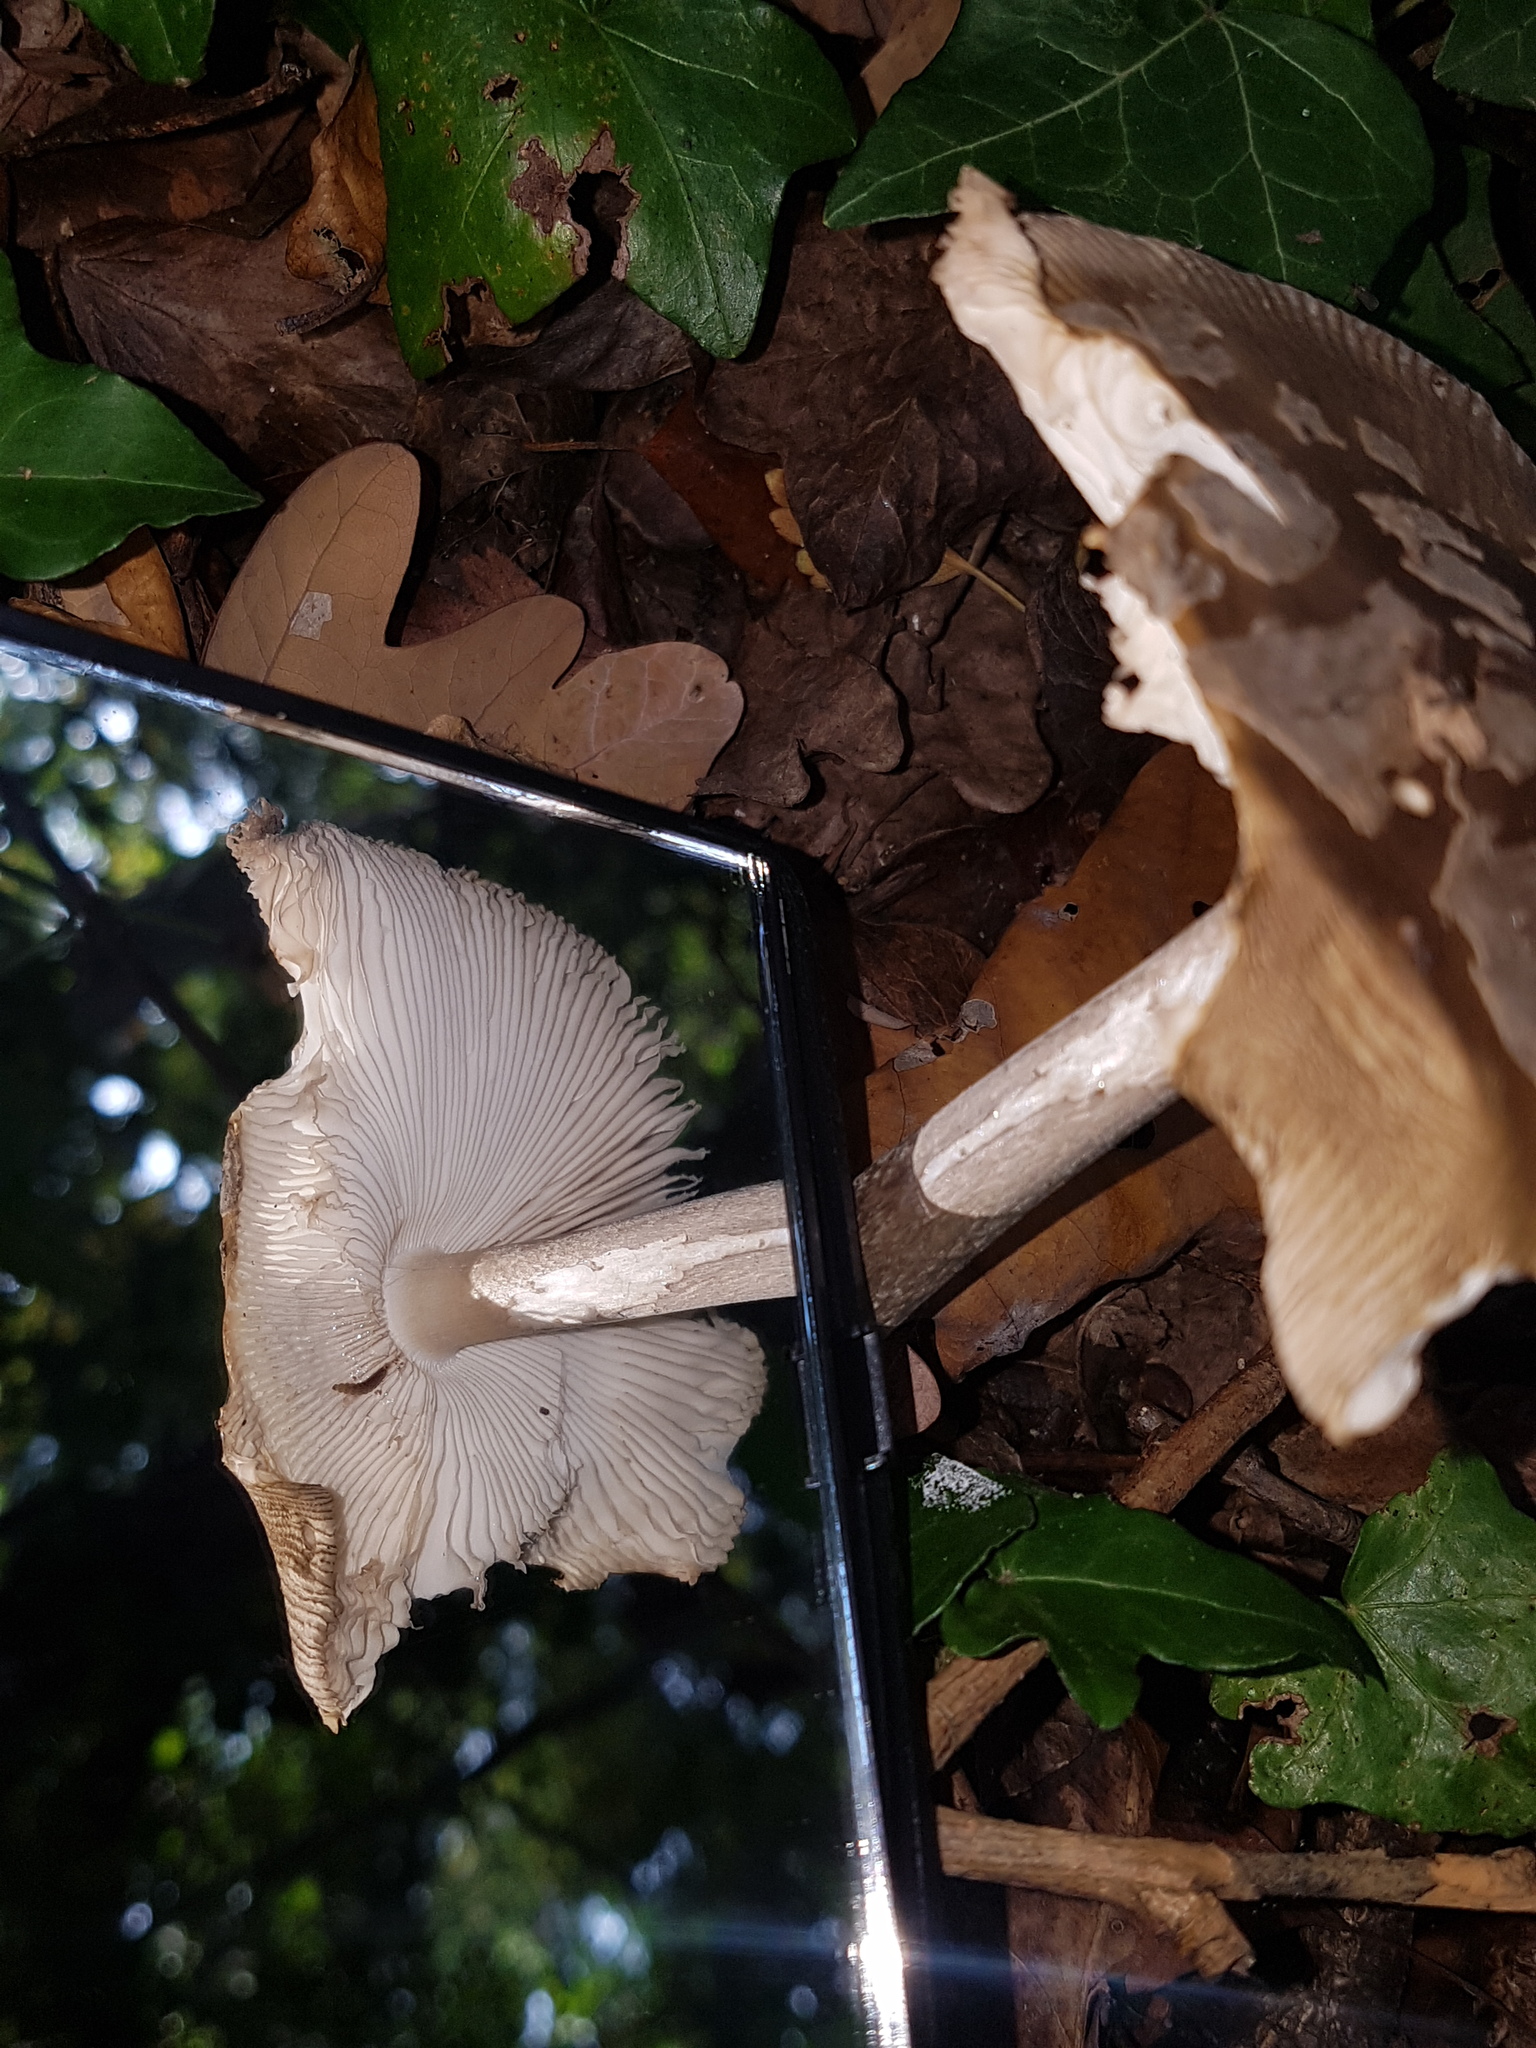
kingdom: Fungi
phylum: Basidiomycota
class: Agaricomycetes
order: Agaricales
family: Amanitaceae
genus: Amanita
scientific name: Amanita ceciliae
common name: Snakeskin grisette
